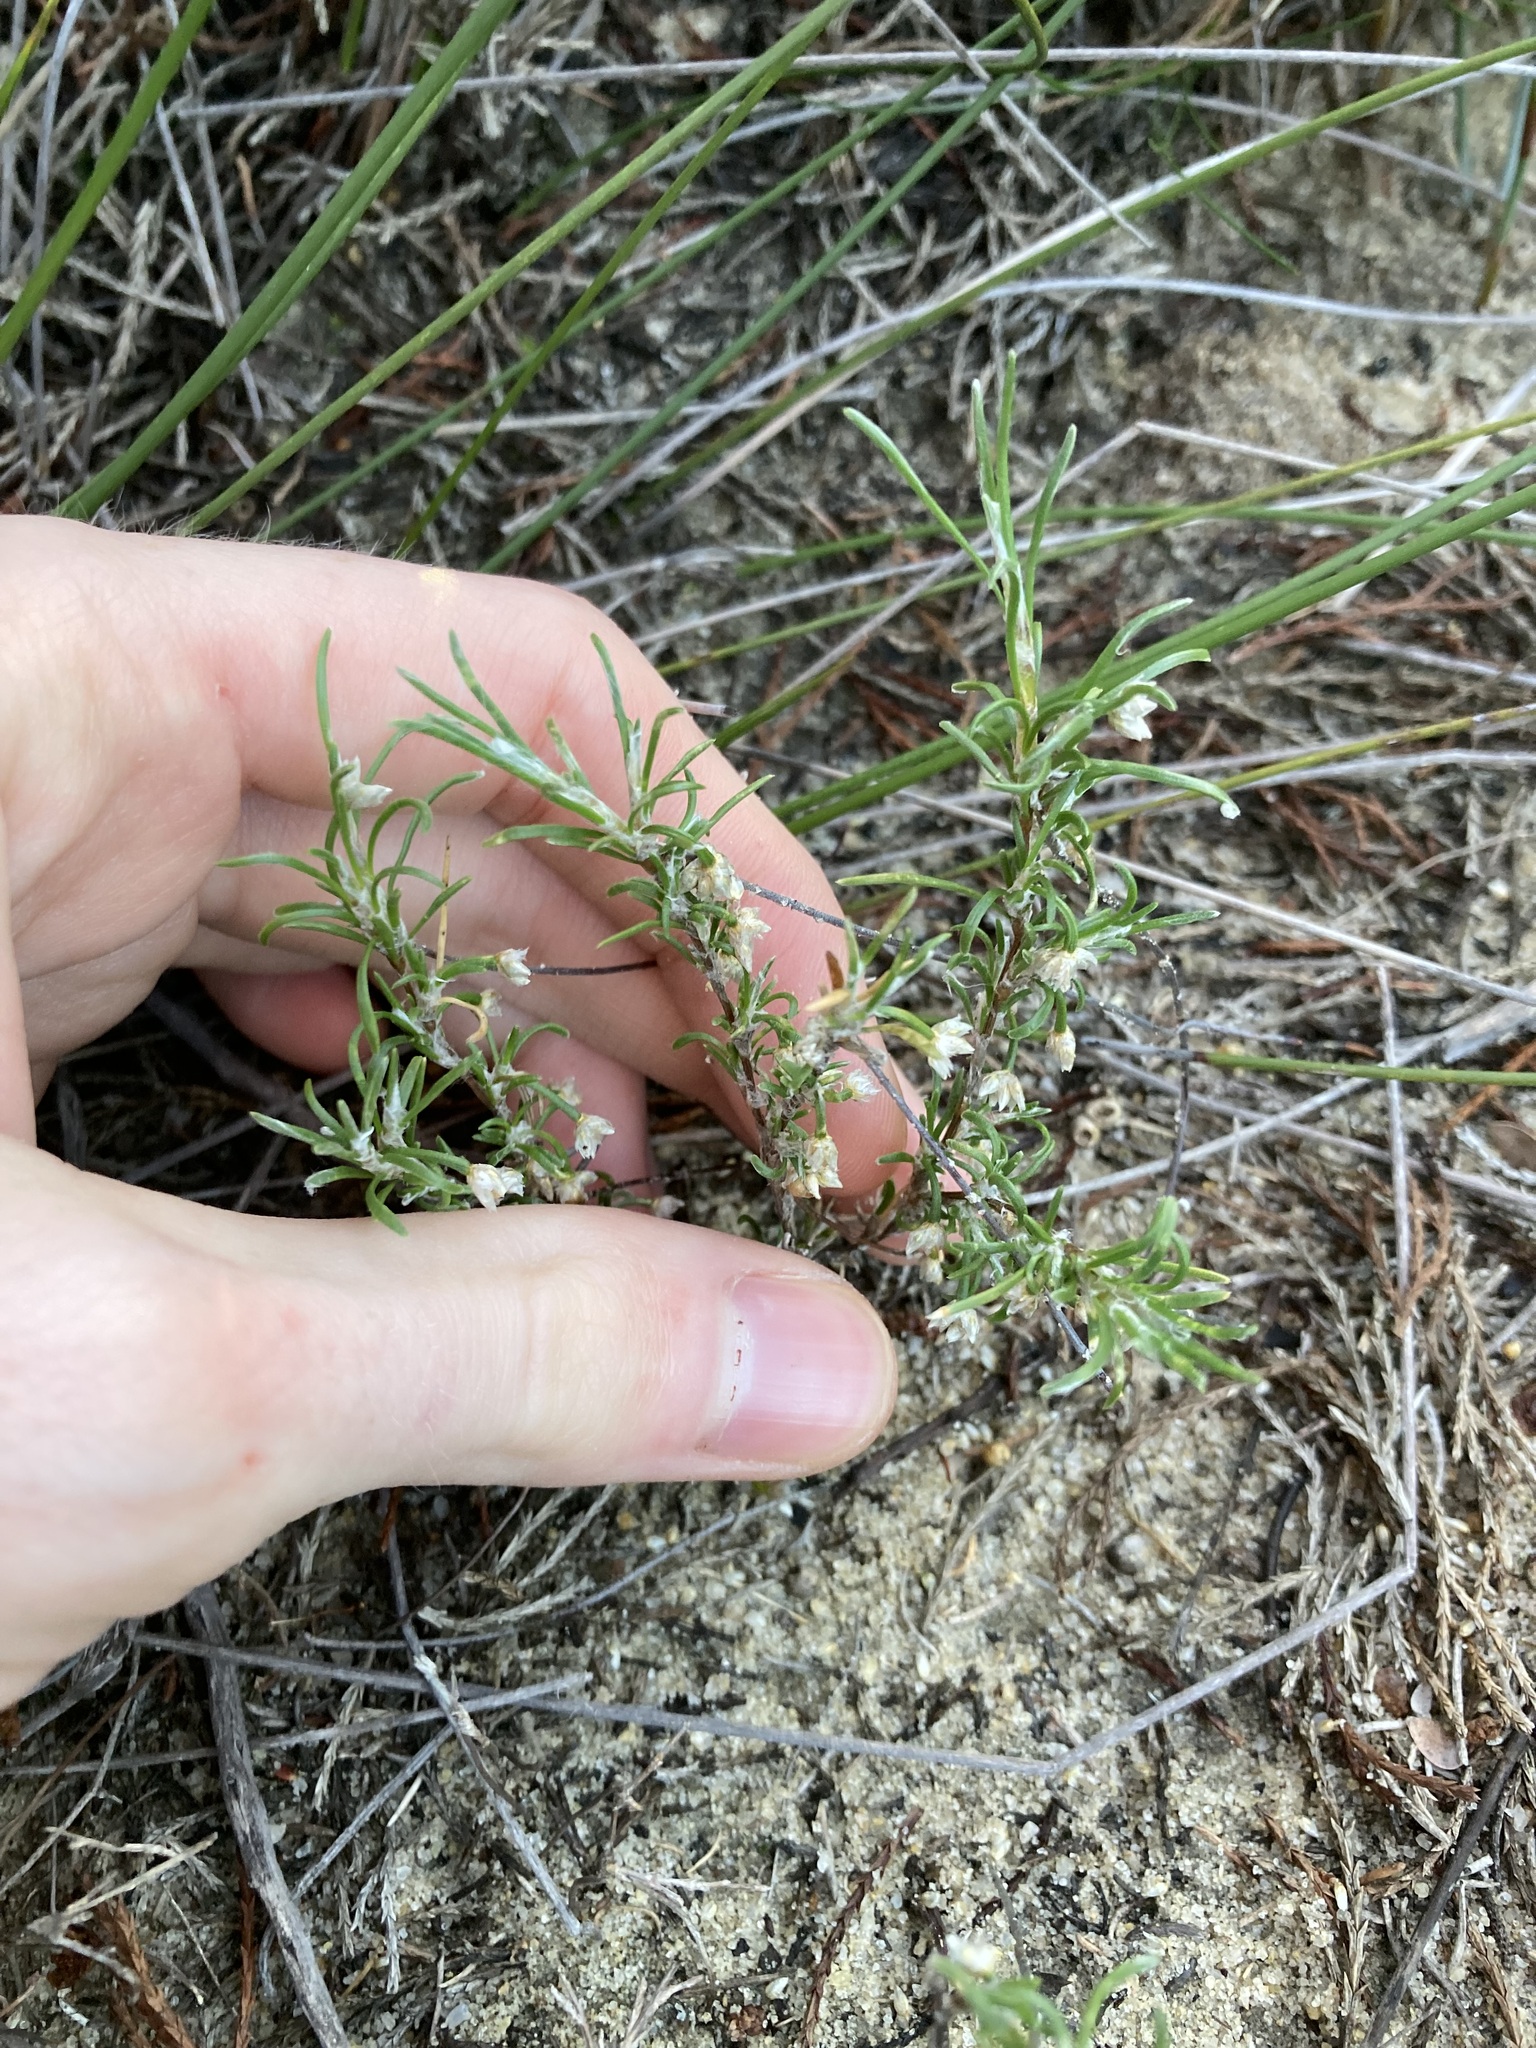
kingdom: Plantae
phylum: Tracheophyta
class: Liliopsida
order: Asparagales
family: Asparagaceae
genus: Laxmannia
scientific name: Laxmannia sessiliflora
